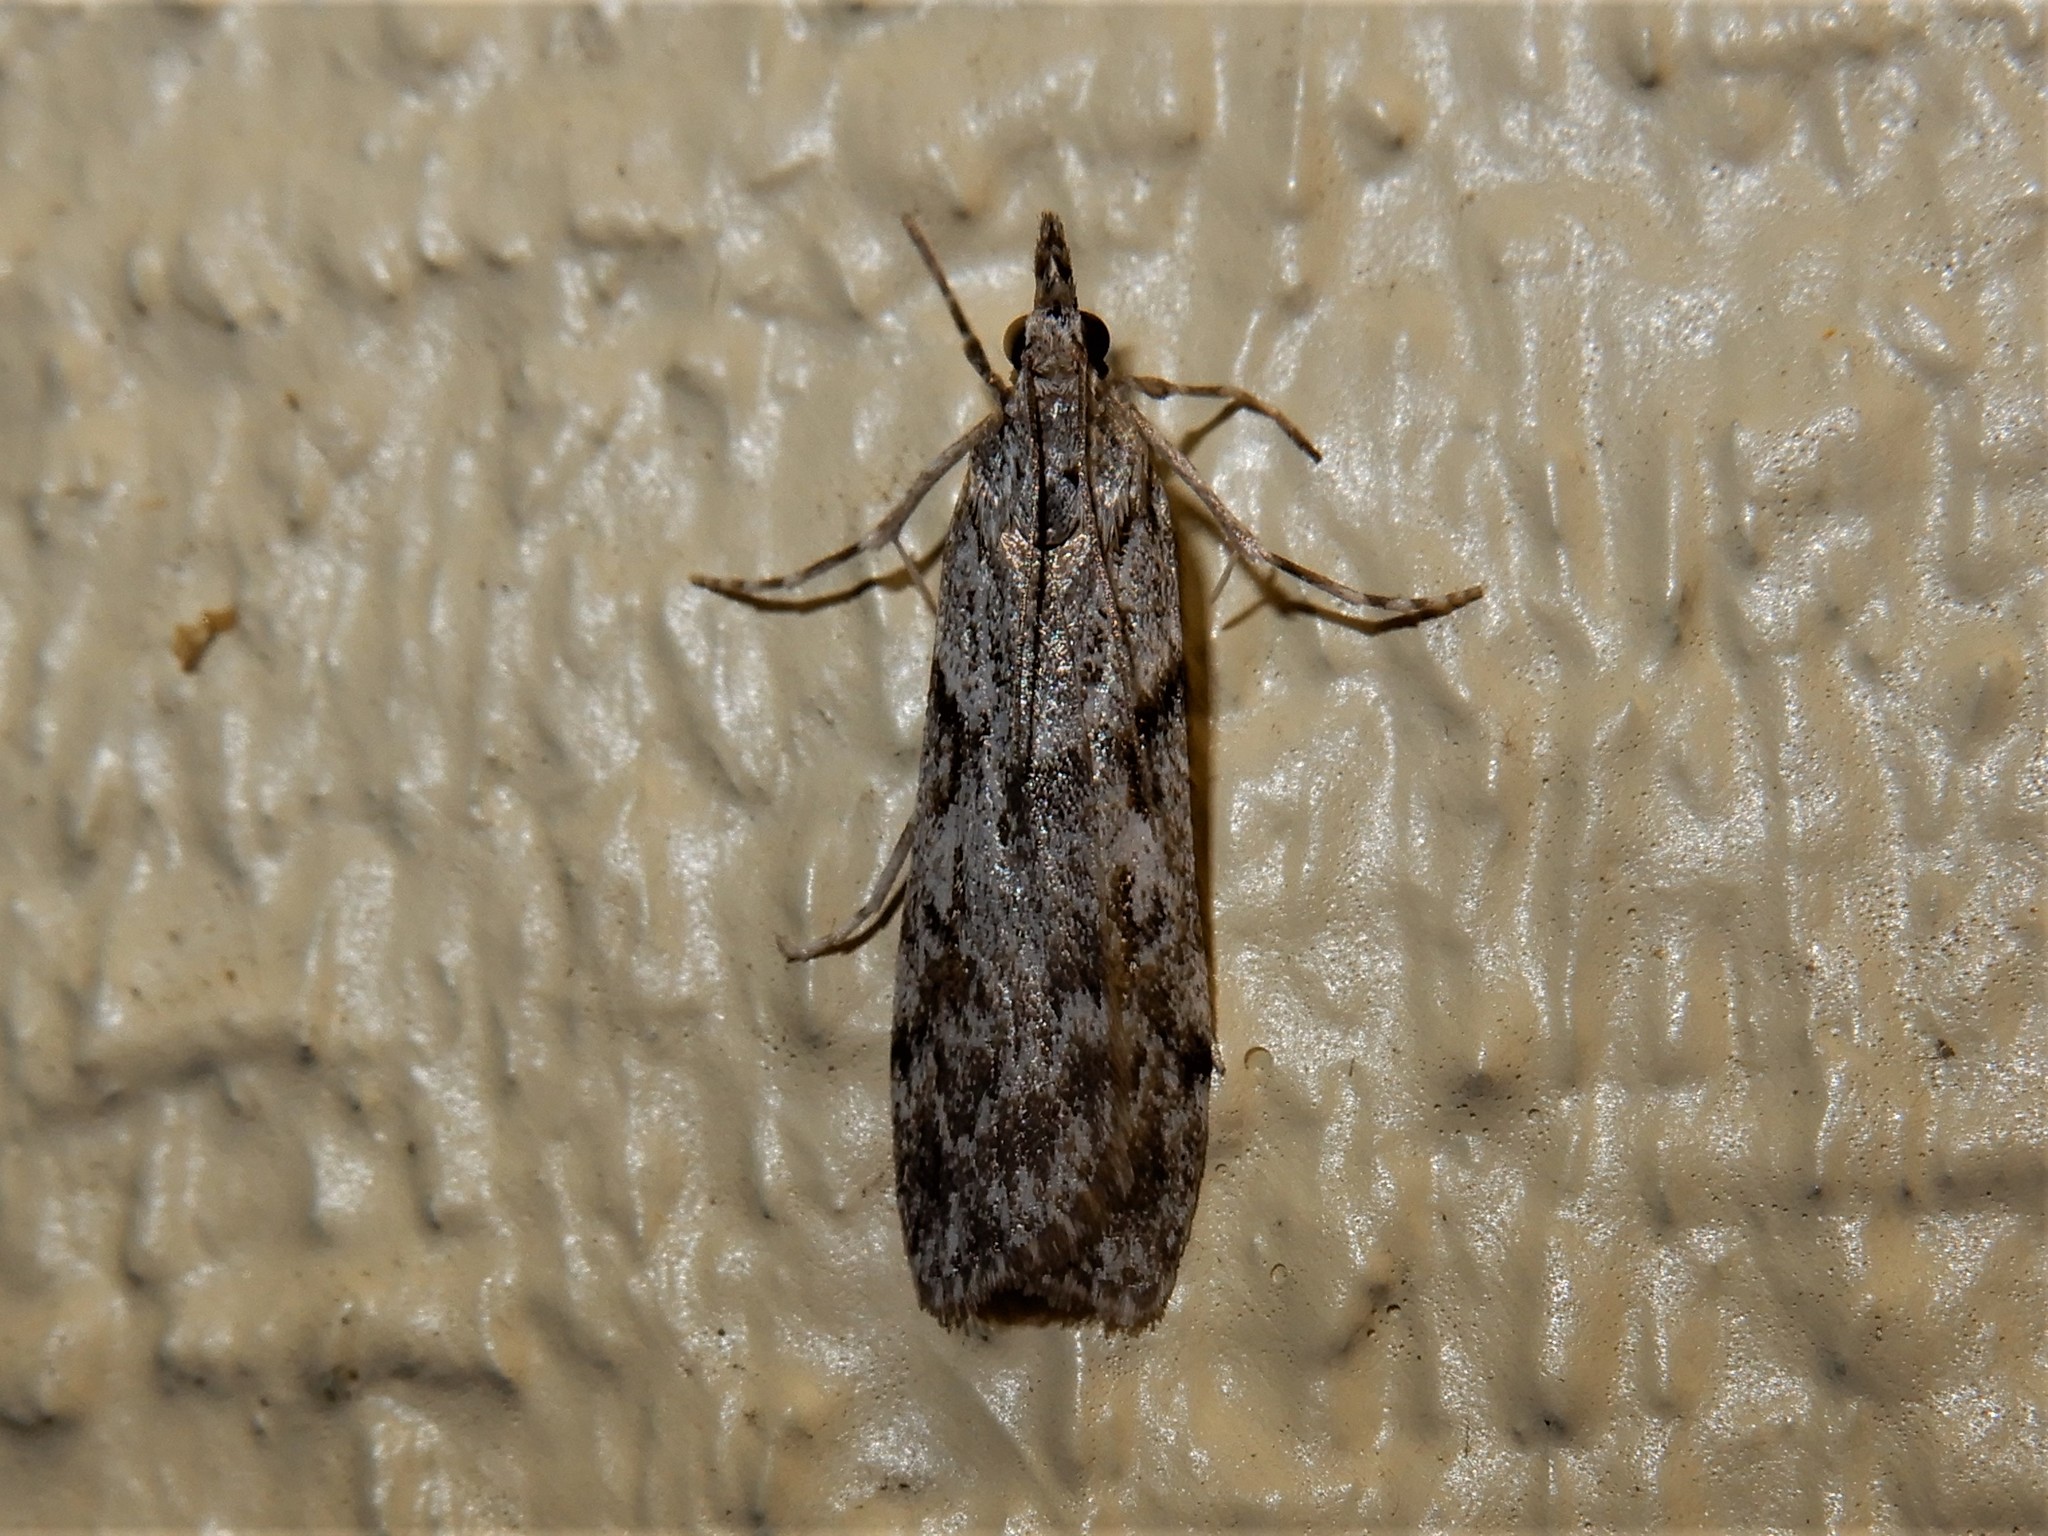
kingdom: Animalia
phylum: Arthropoda
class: Insecta
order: Lepidoptera
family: Crambidae
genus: Scoparia
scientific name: Scoparia halopis
